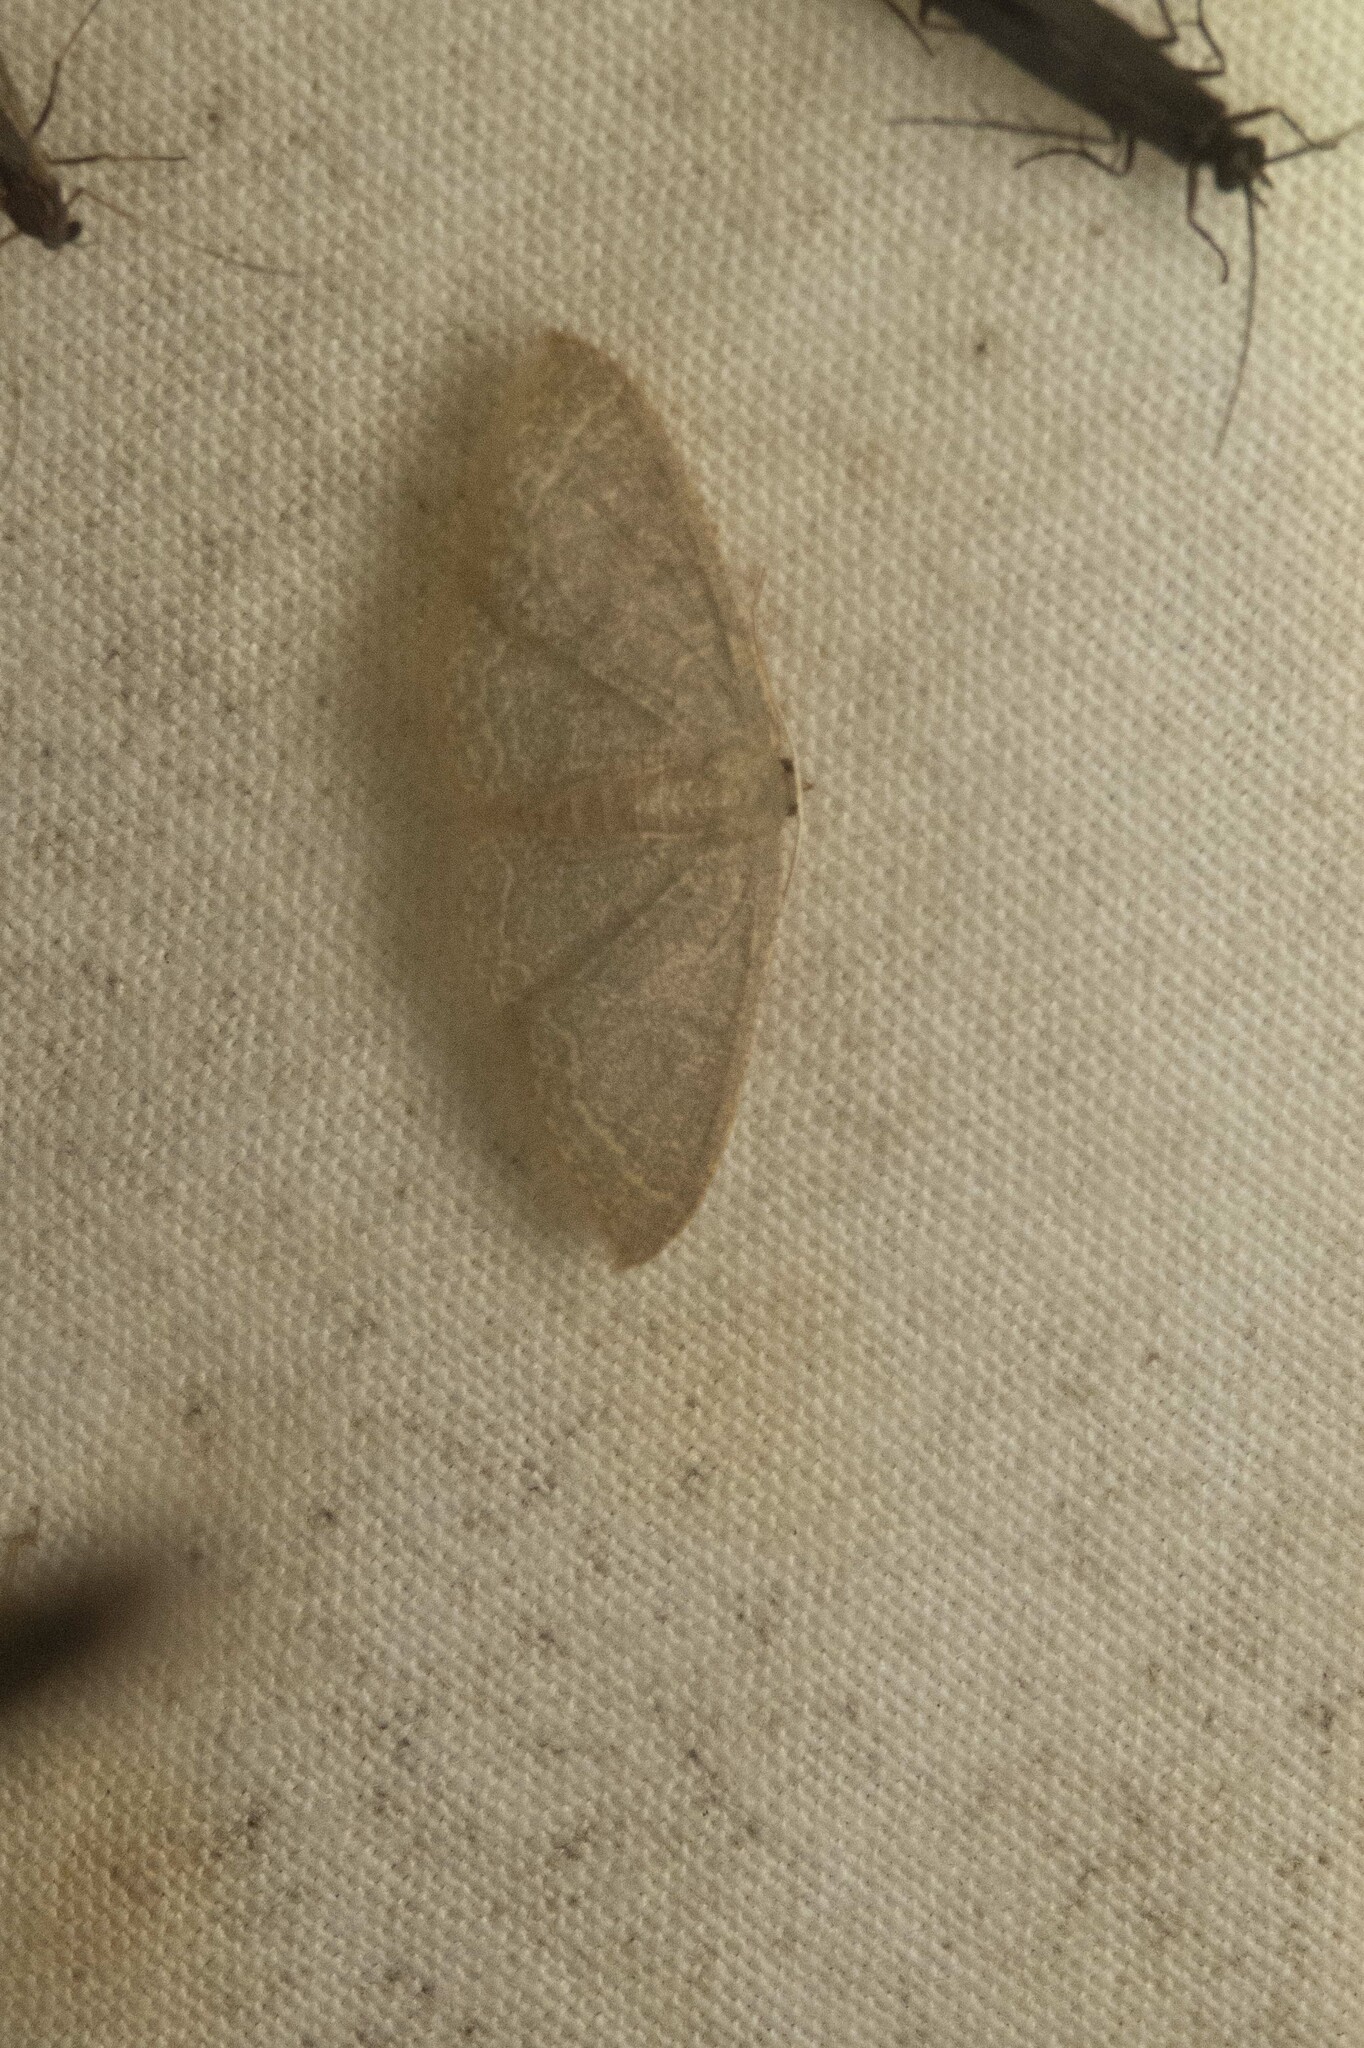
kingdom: Animalia
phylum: Arthropoda
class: Insecta
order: Lepidoptera
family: Geometridae
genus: Pleuroprucha
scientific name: Pleuroprucha insulsaria
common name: Common tan wave
